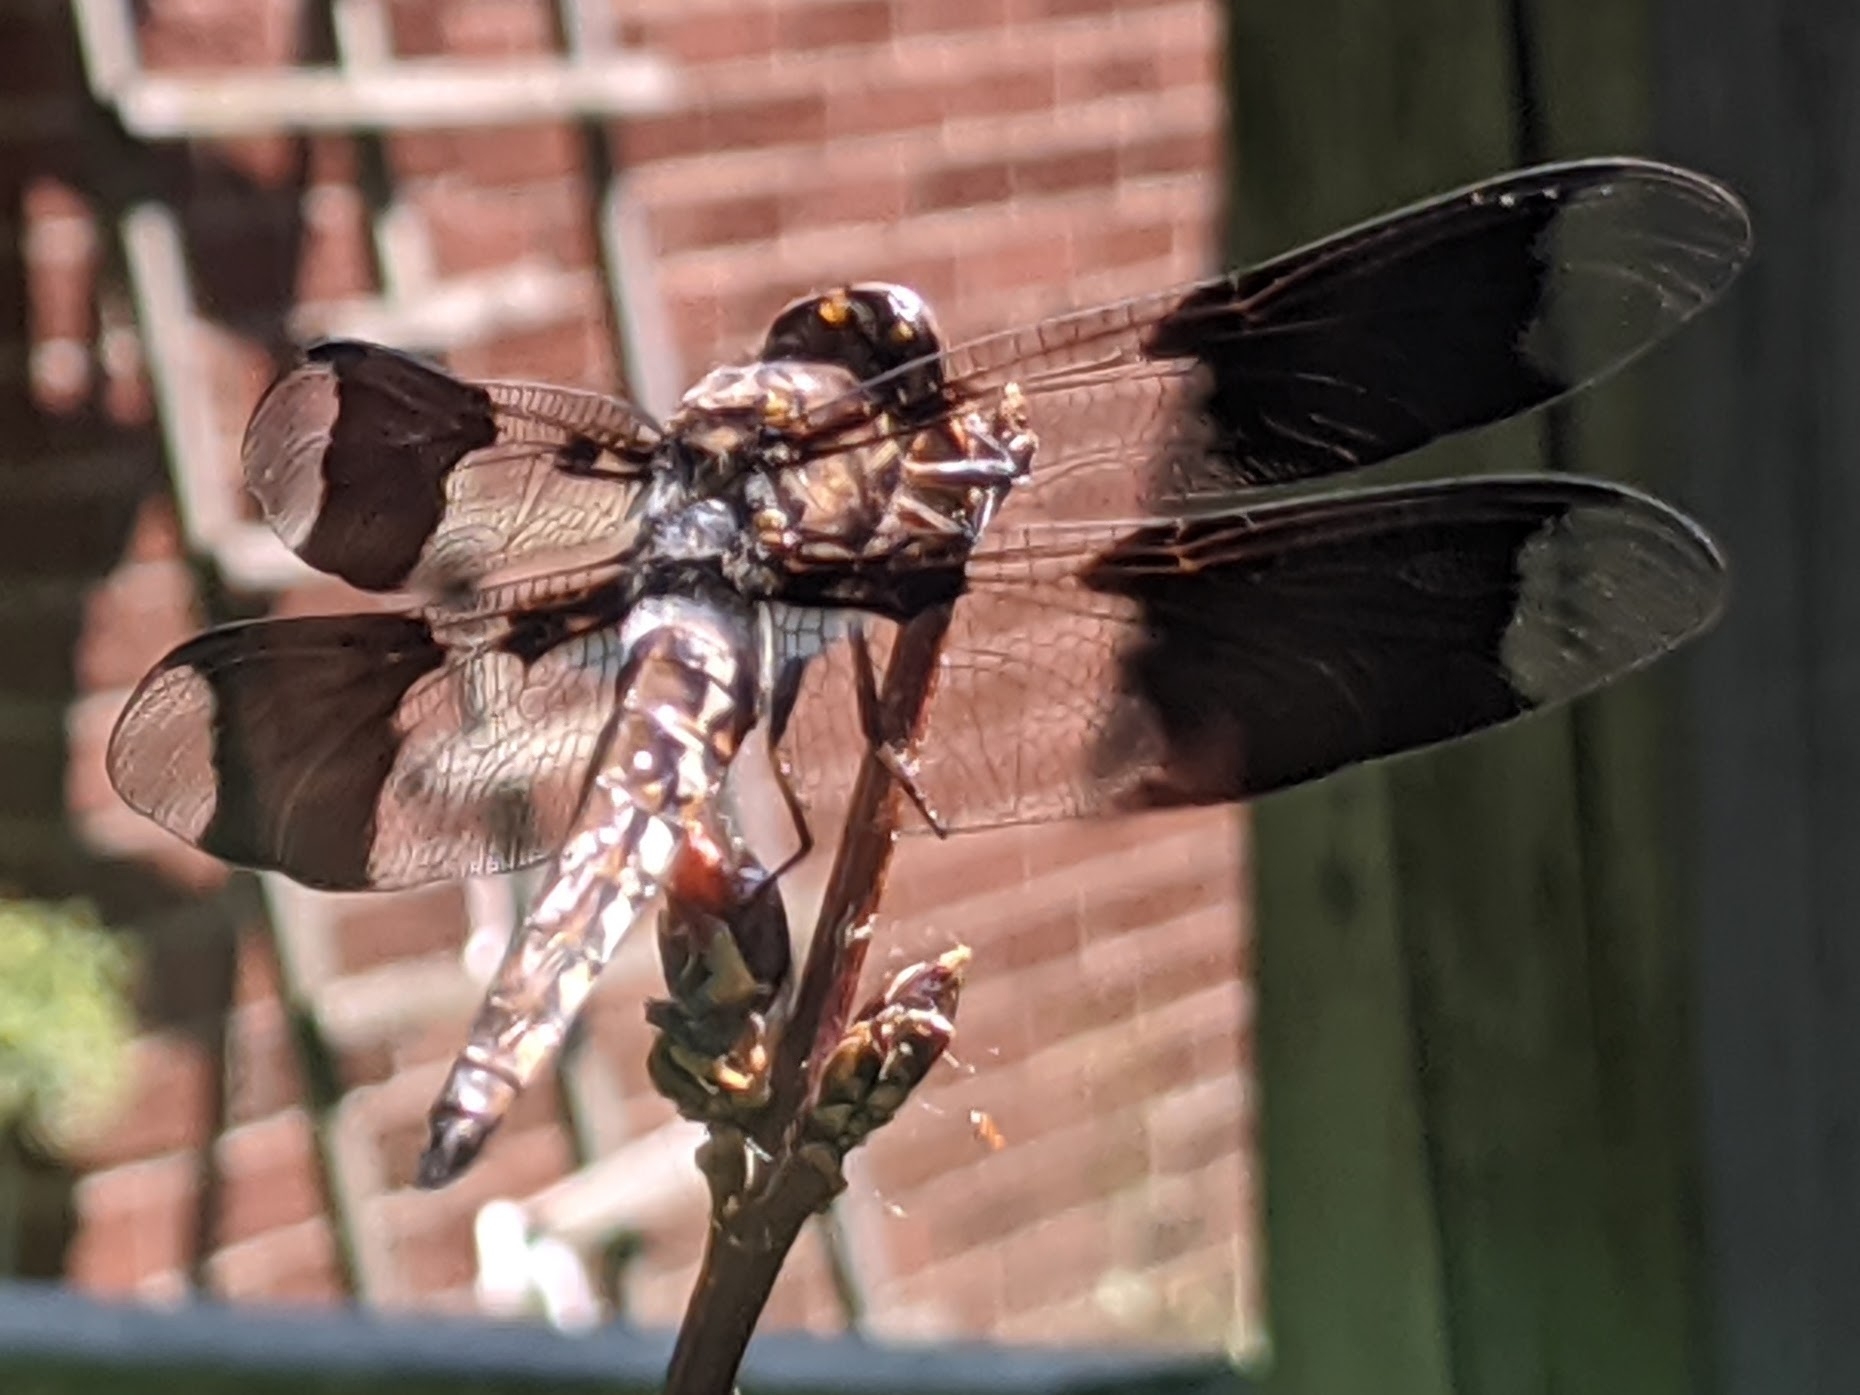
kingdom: Animalia
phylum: Arthropoda
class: Insecta
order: Odonata
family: Libellulidae
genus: Plathemis
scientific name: Plathemis lydia
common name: Common whitetail
